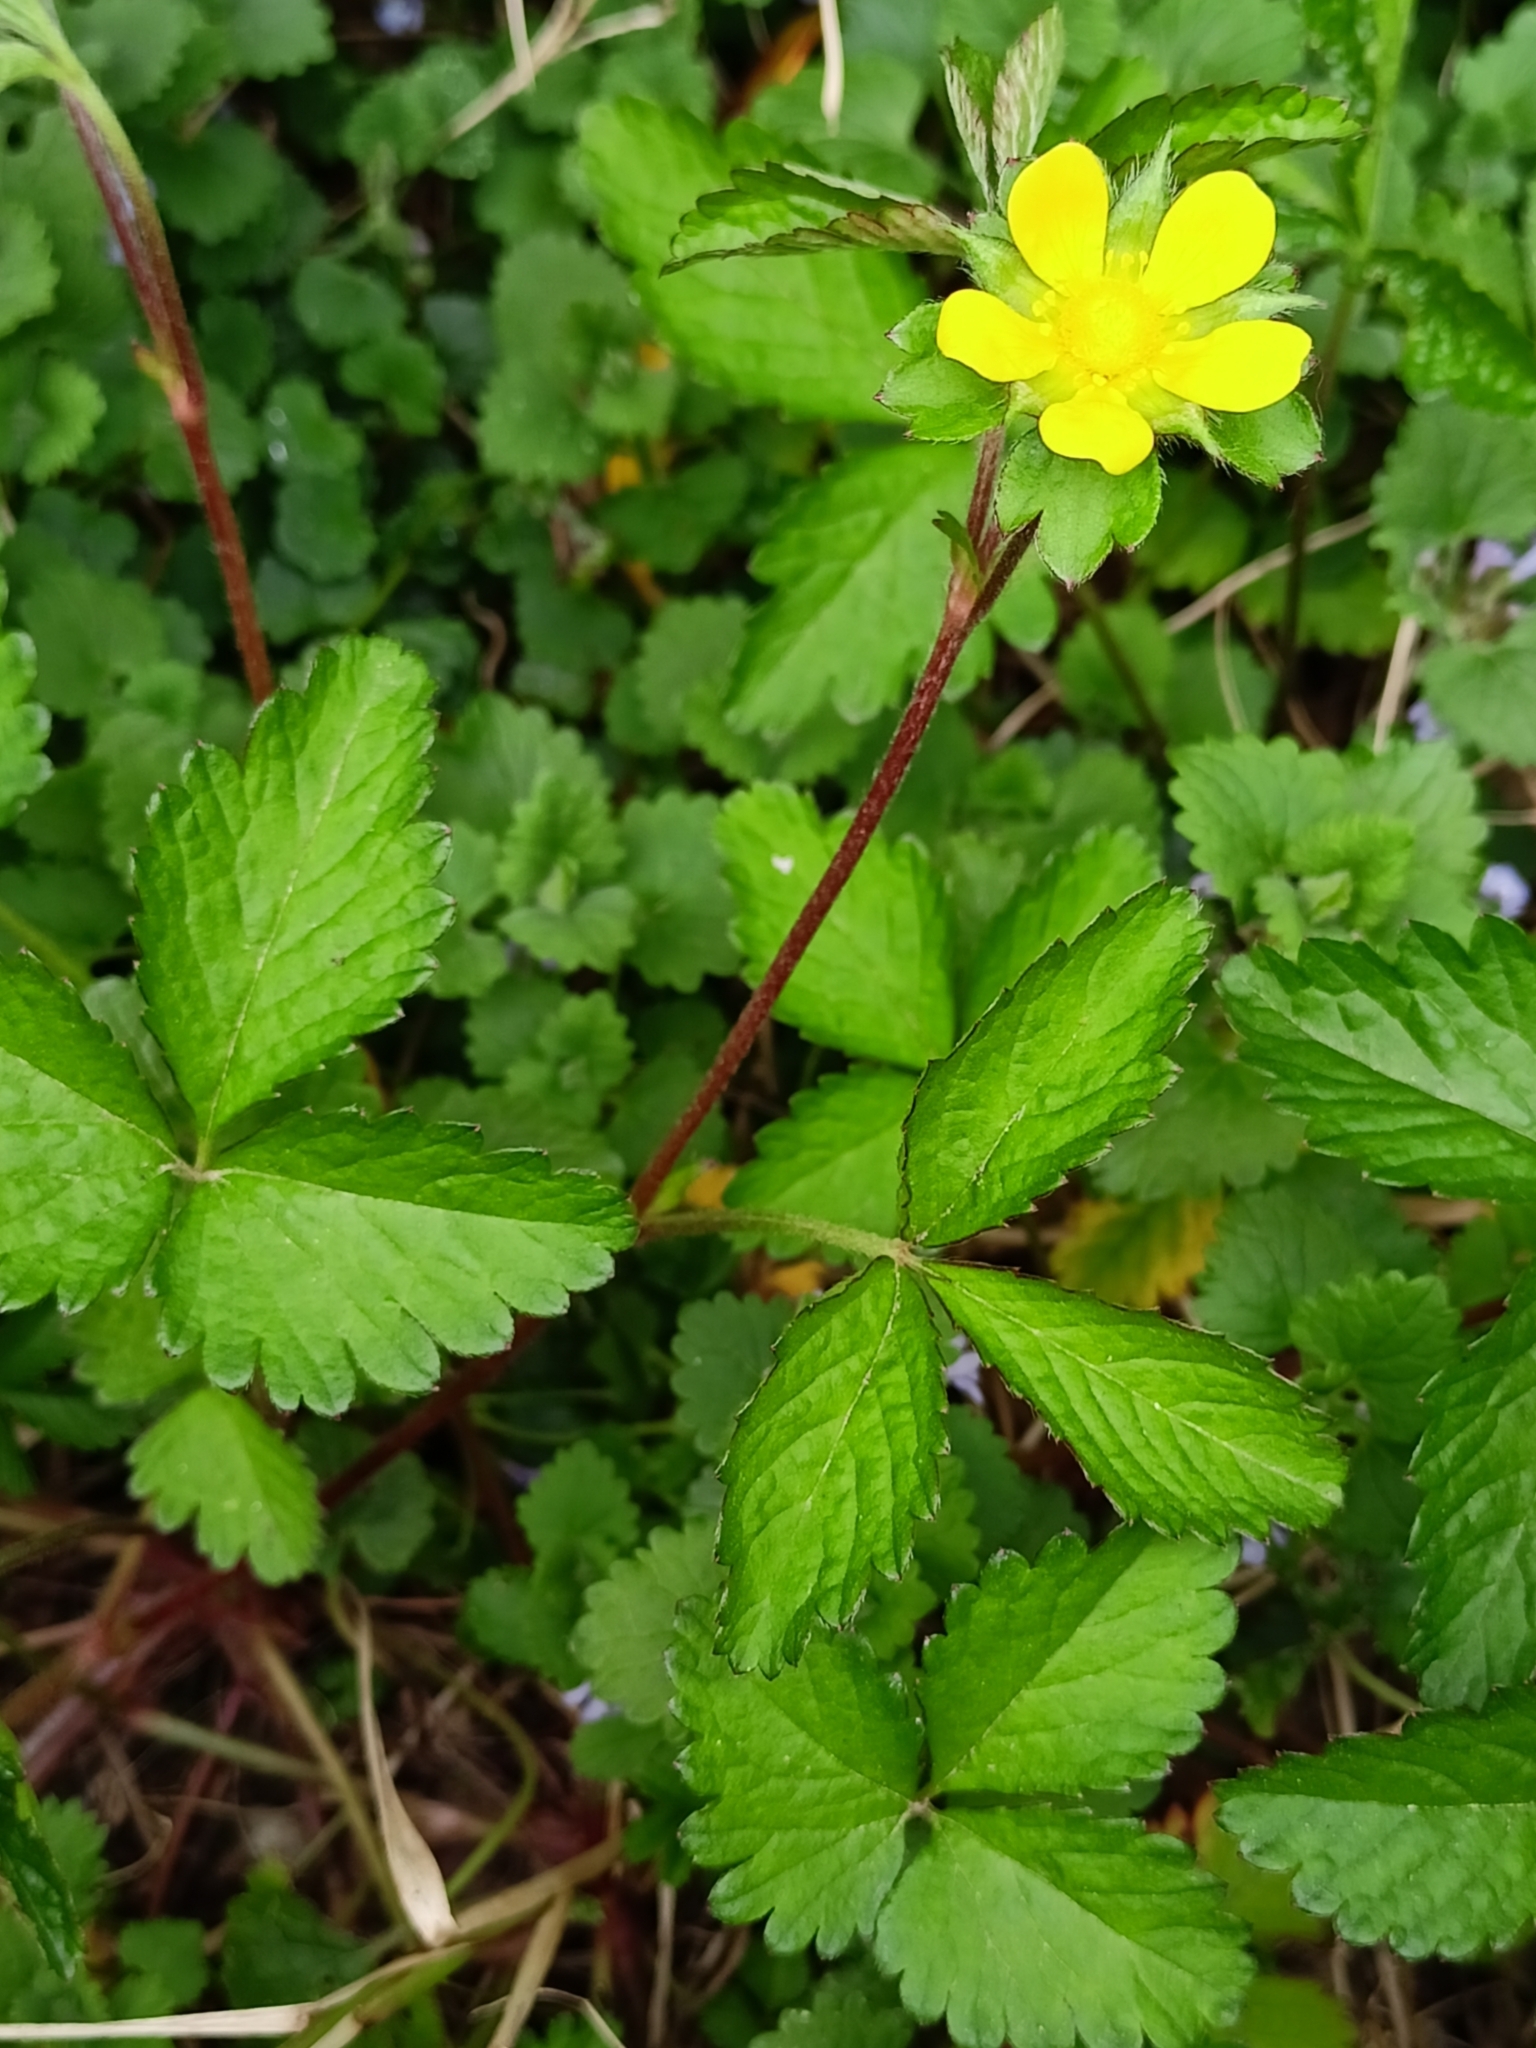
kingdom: Plantae
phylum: Tracheophyta
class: Magnoliopsida
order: Rosales
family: Rosaceae
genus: Potentilla
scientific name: Potentilla indica
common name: Yellow-flowered strawberry
